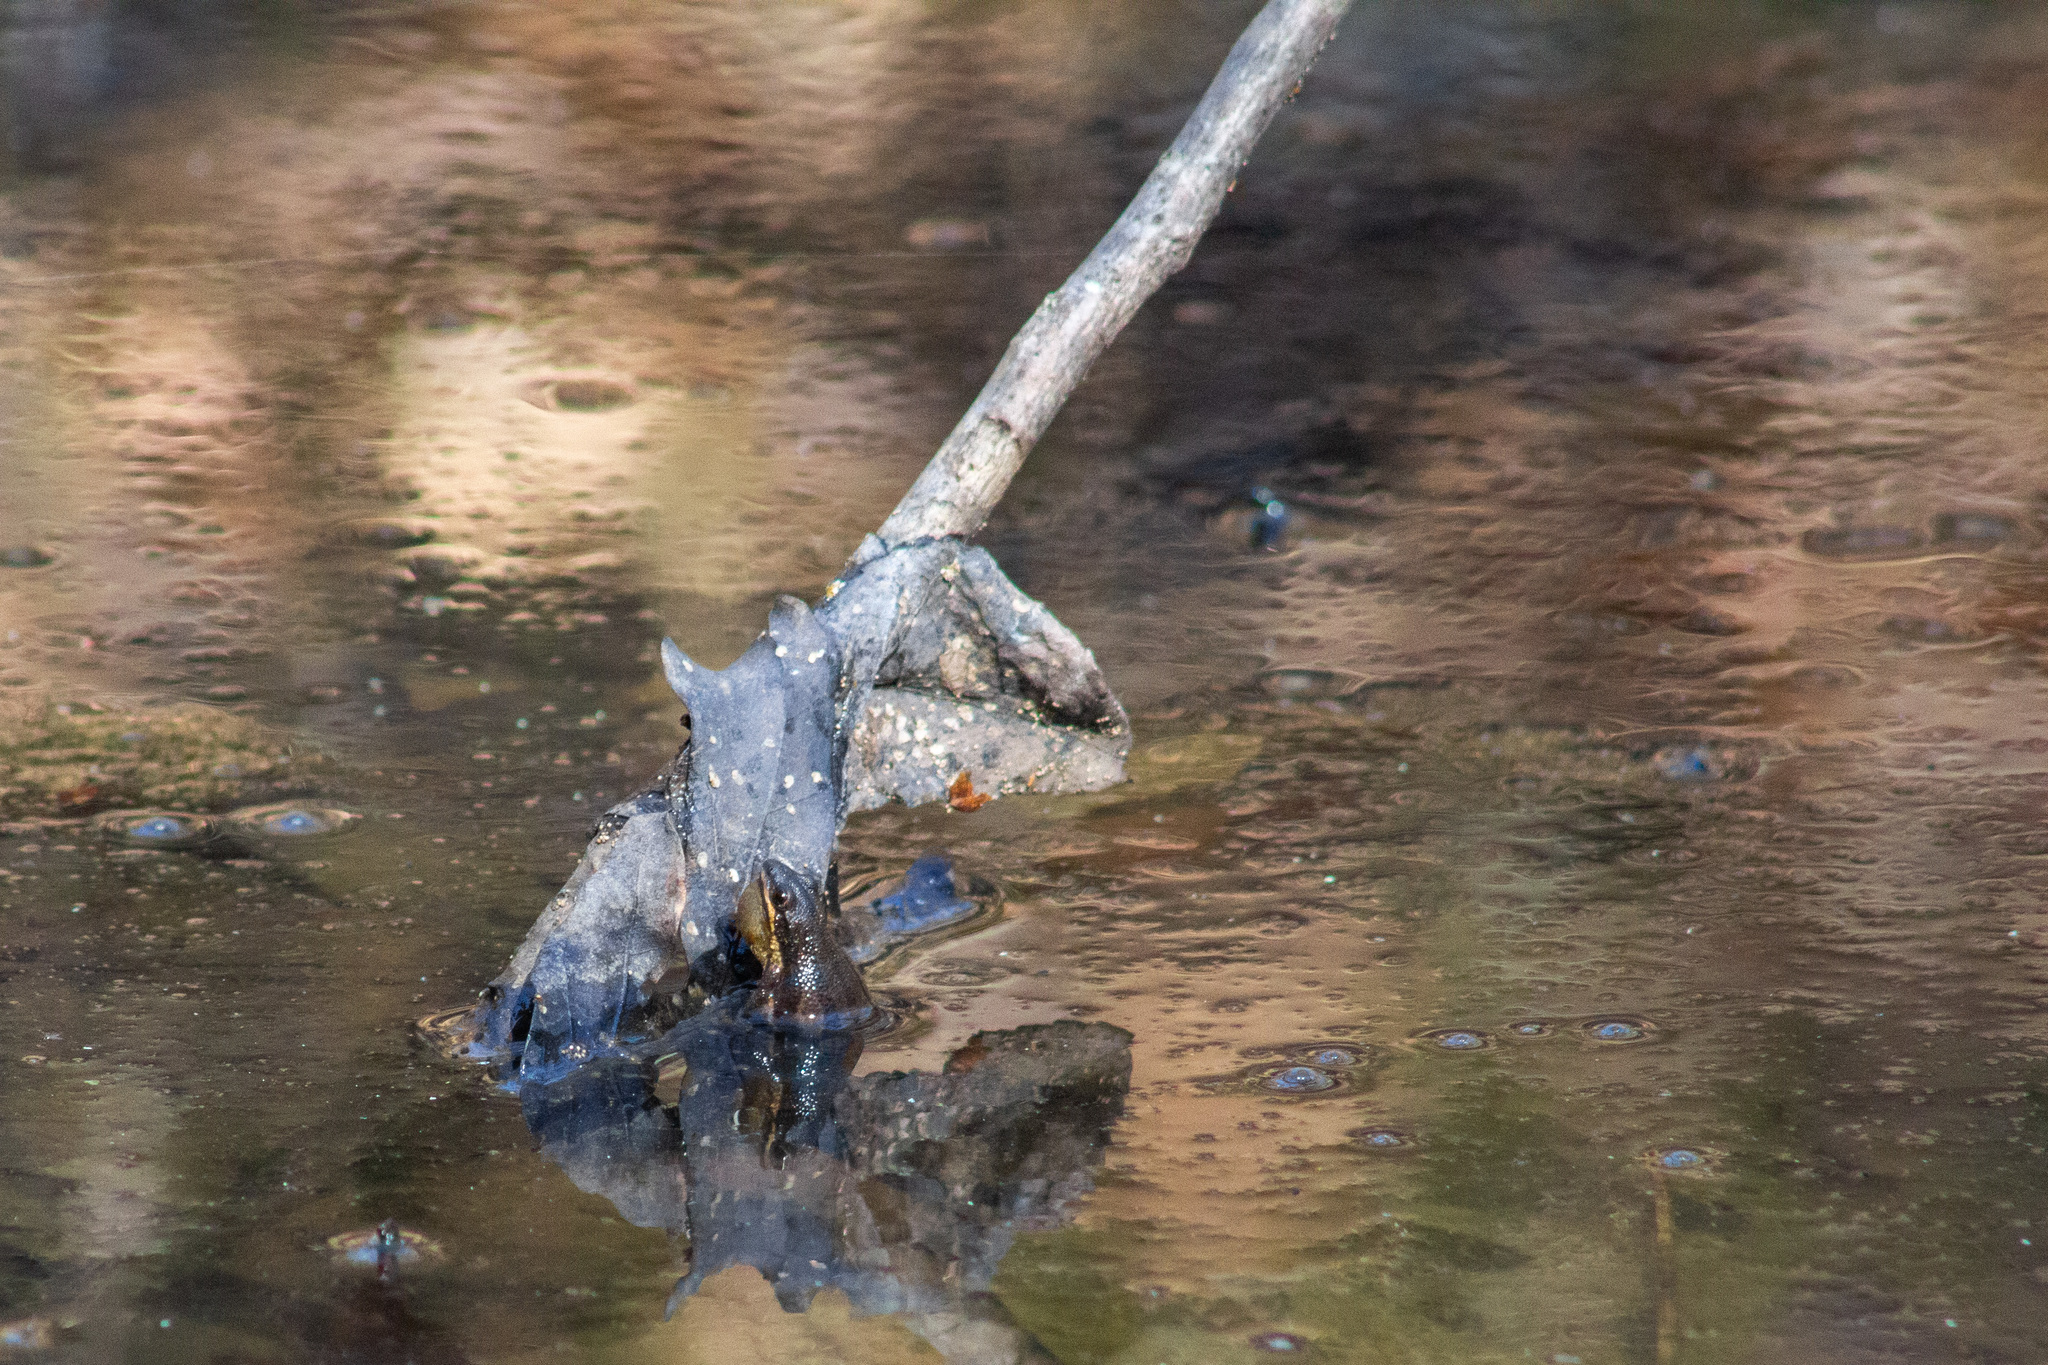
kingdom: Animalia
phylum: Chordata
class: Amphibia
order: Anura
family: Hylidae
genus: Pseudacris
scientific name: Pseudacris maculata
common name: Boreal chorus frog
